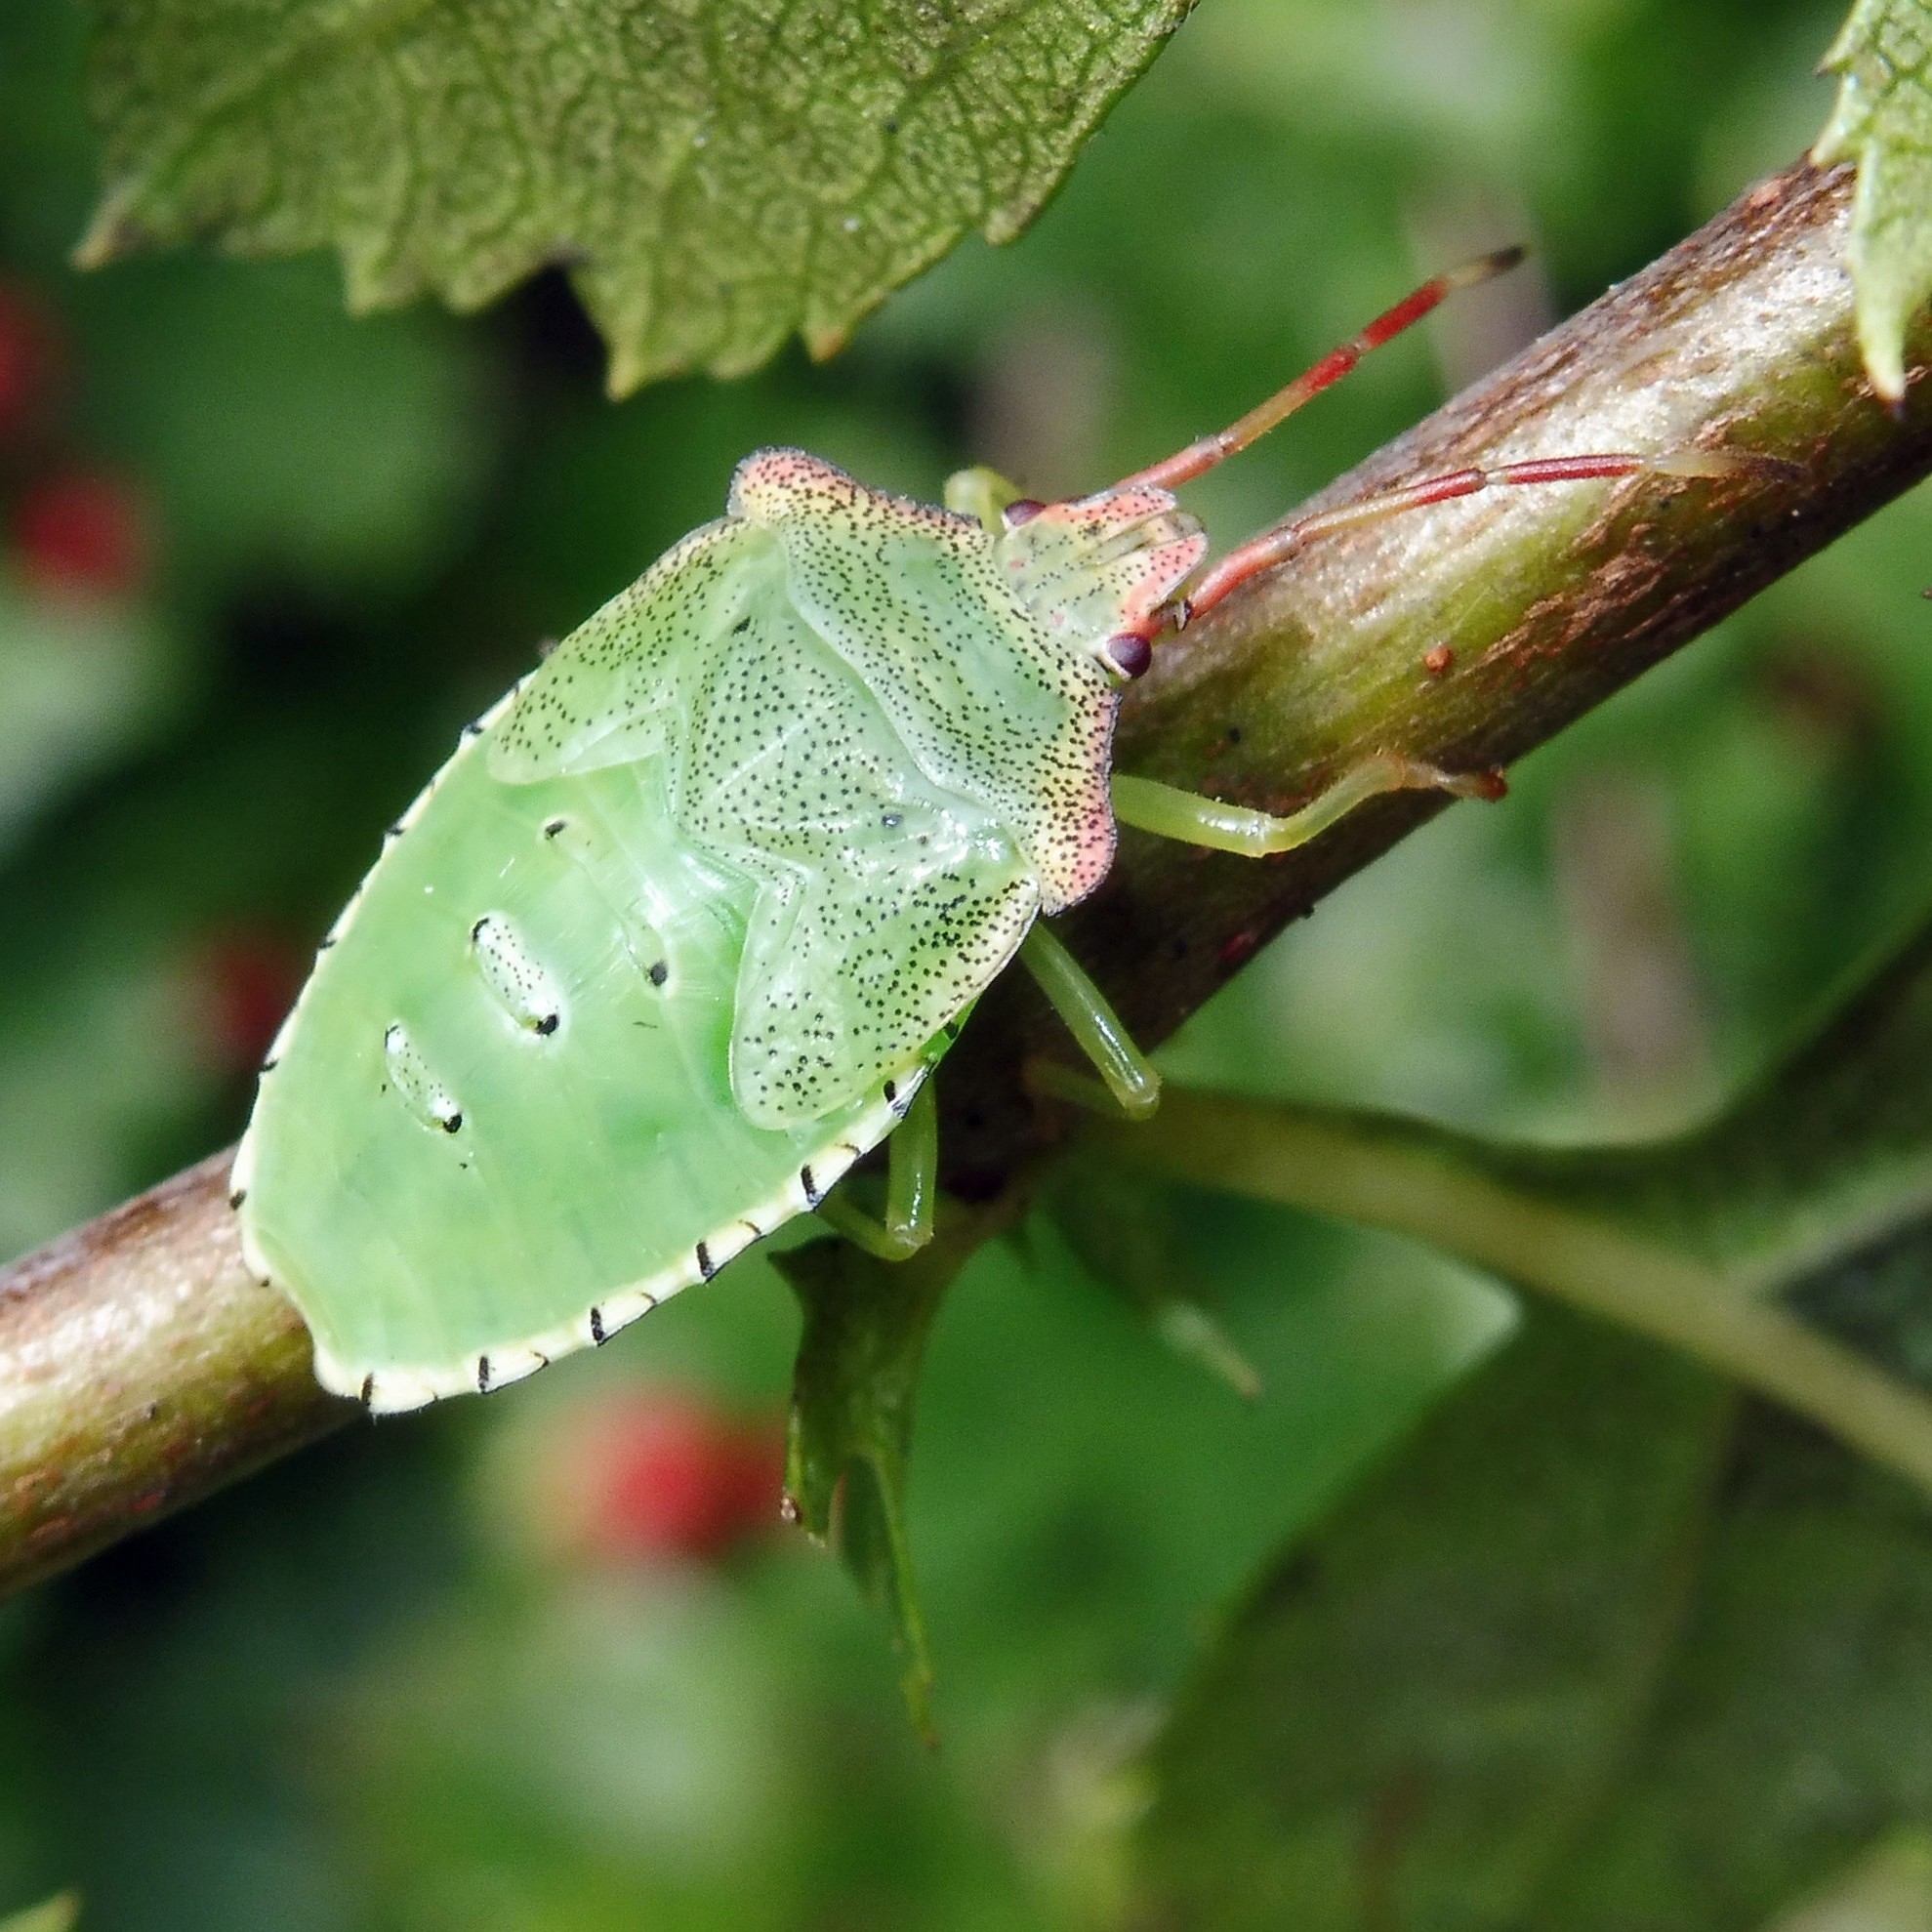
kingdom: Animalia
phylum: Arthropoda
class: Insecta
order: Hemiptera
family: Acanthosomatidae
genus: Acanthosoma
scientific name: Acanthosoma haemorrhoidale
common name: Hawthorn shieldbug
